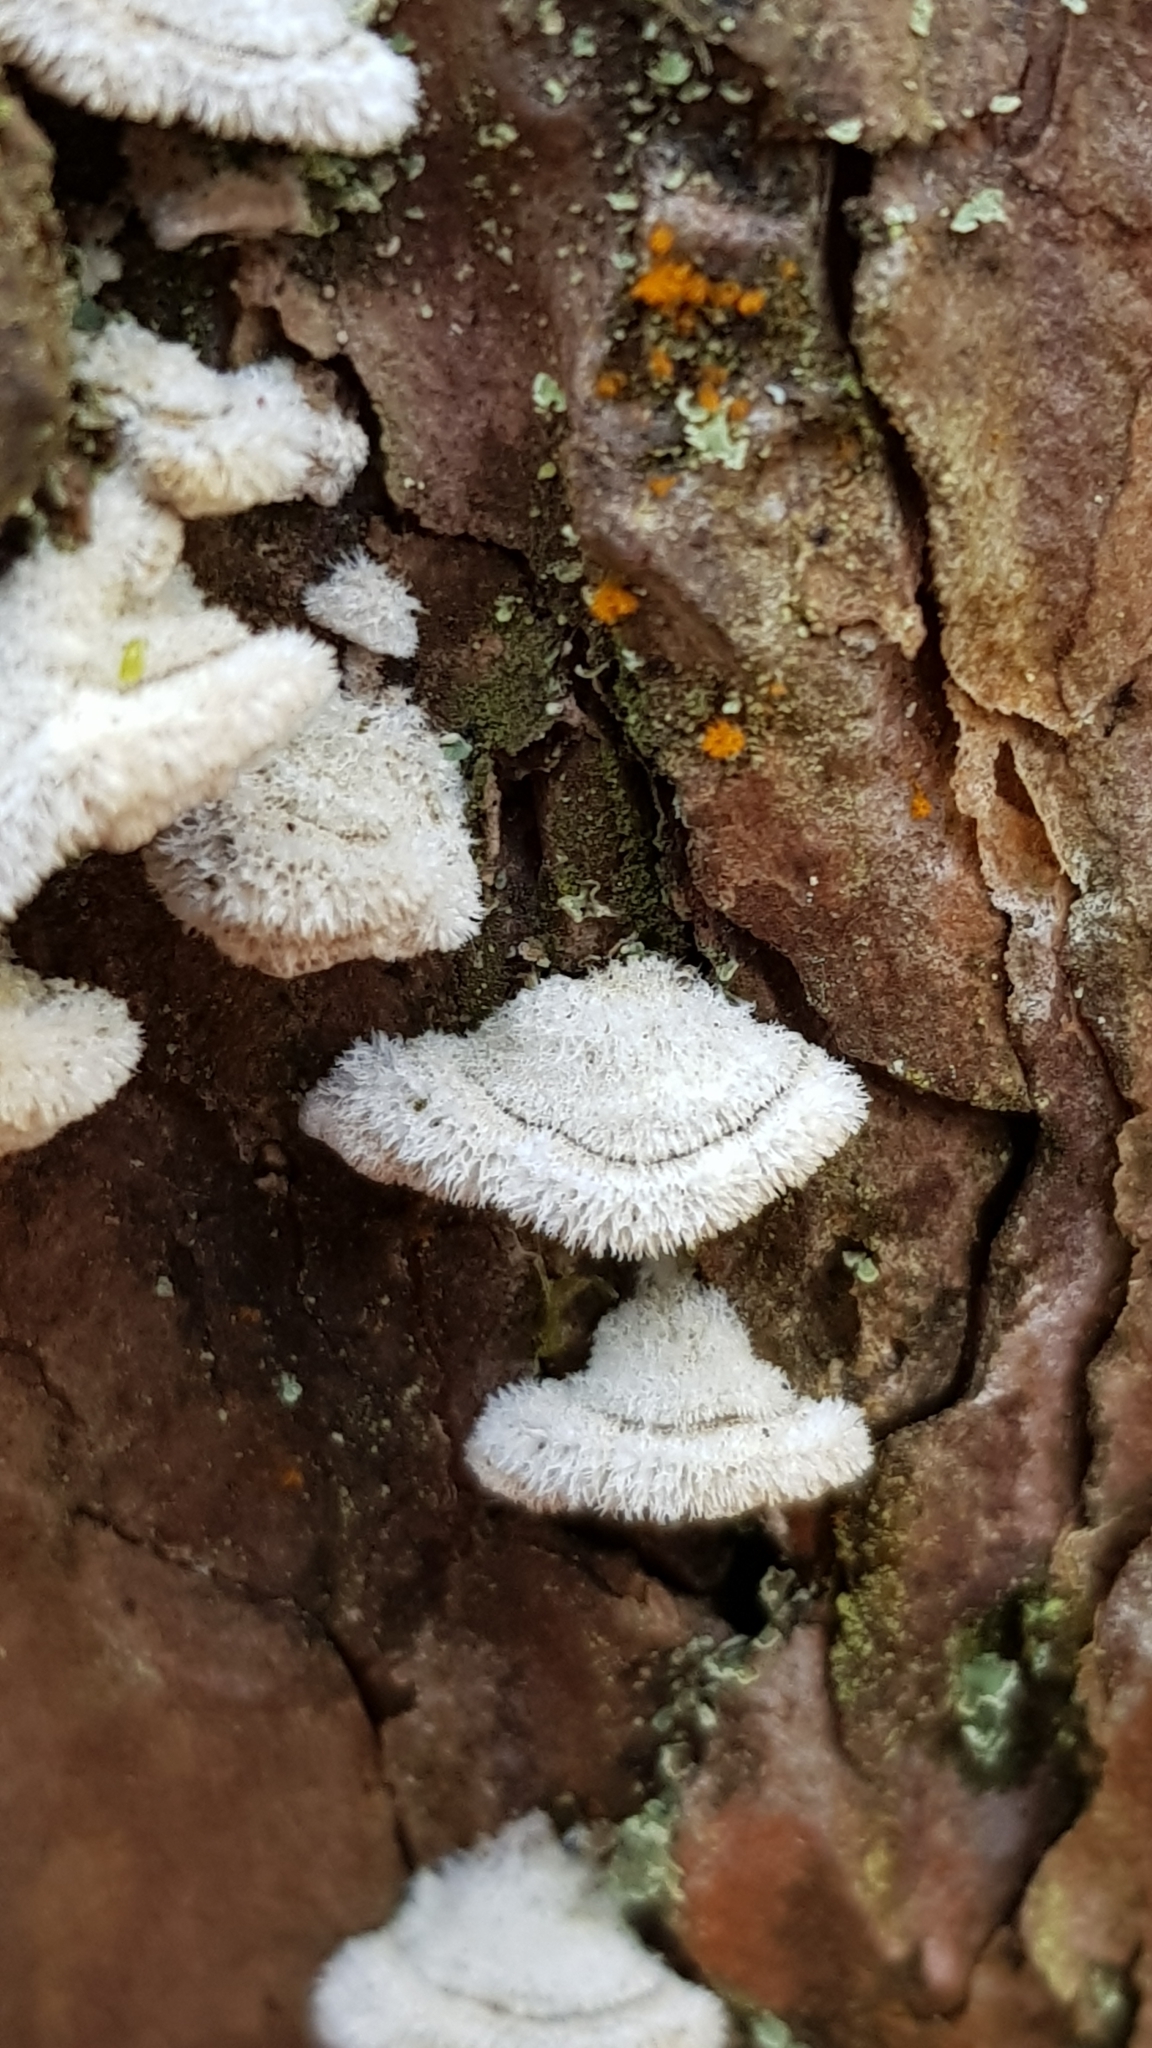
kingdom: Fungi
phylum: Basidiomycota
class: Agaricomycetes
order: Hymenochaetales
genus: Trichaptum
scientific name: Trichaptum abietinum
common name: Purplepore bracket
